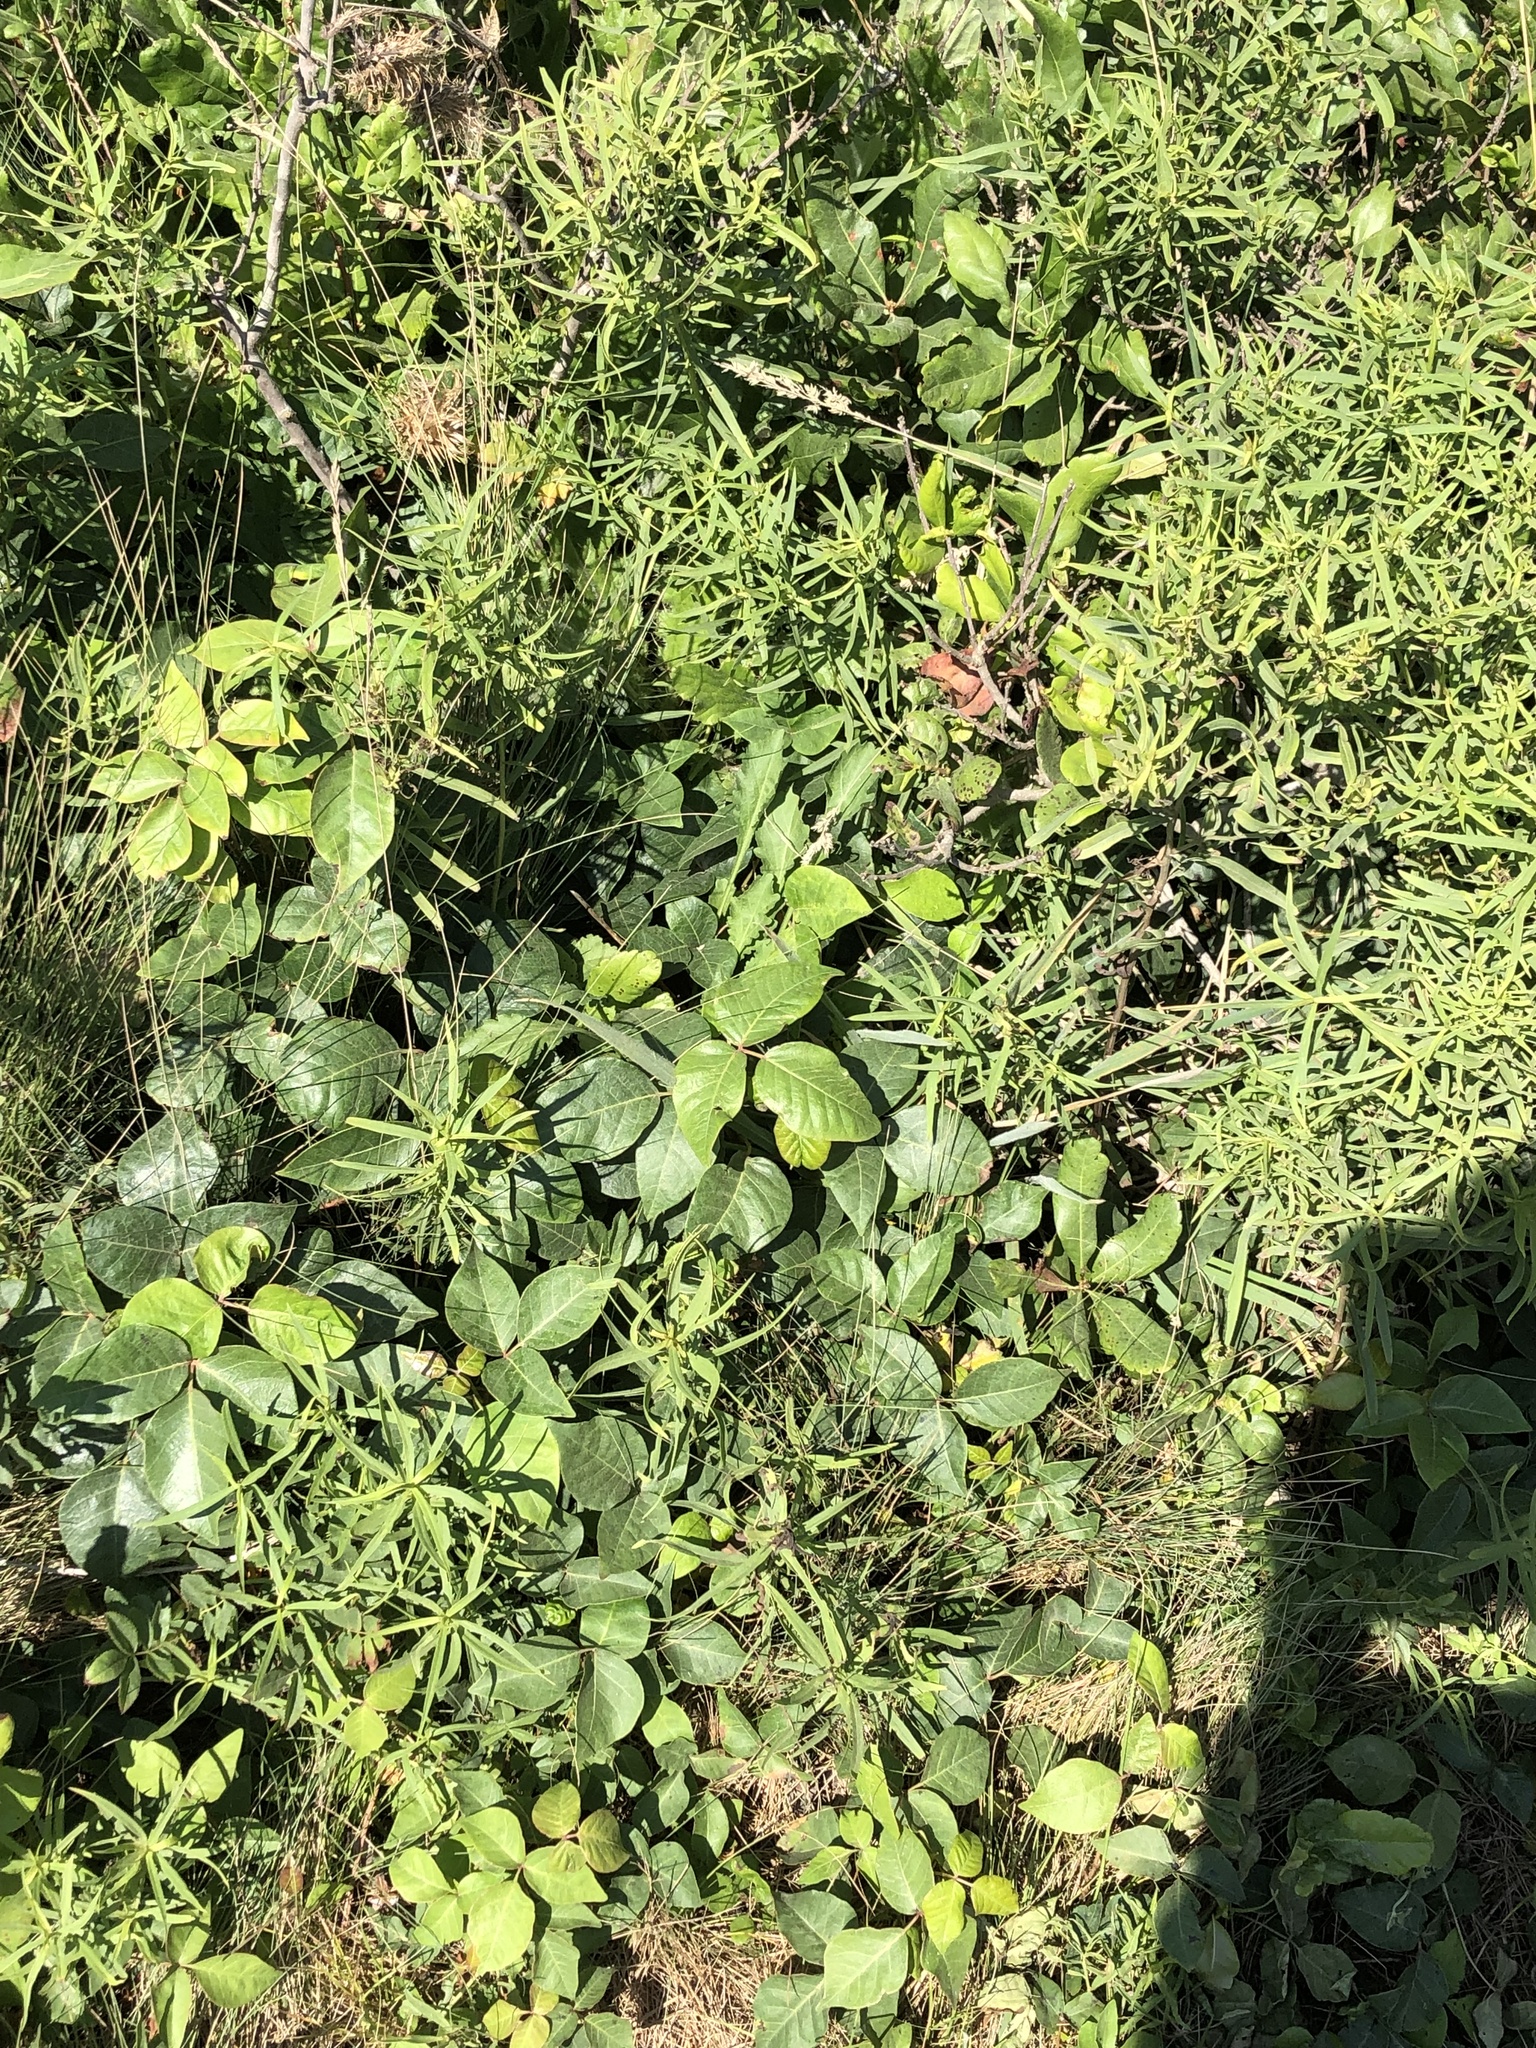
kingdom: Plantae
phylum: Tracheophyta
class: Magnoliopsida
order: Sapindales
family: Anacardiaceae
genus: Toxicodendron
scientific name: Toxicodendron radicans
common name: Poison ivy
